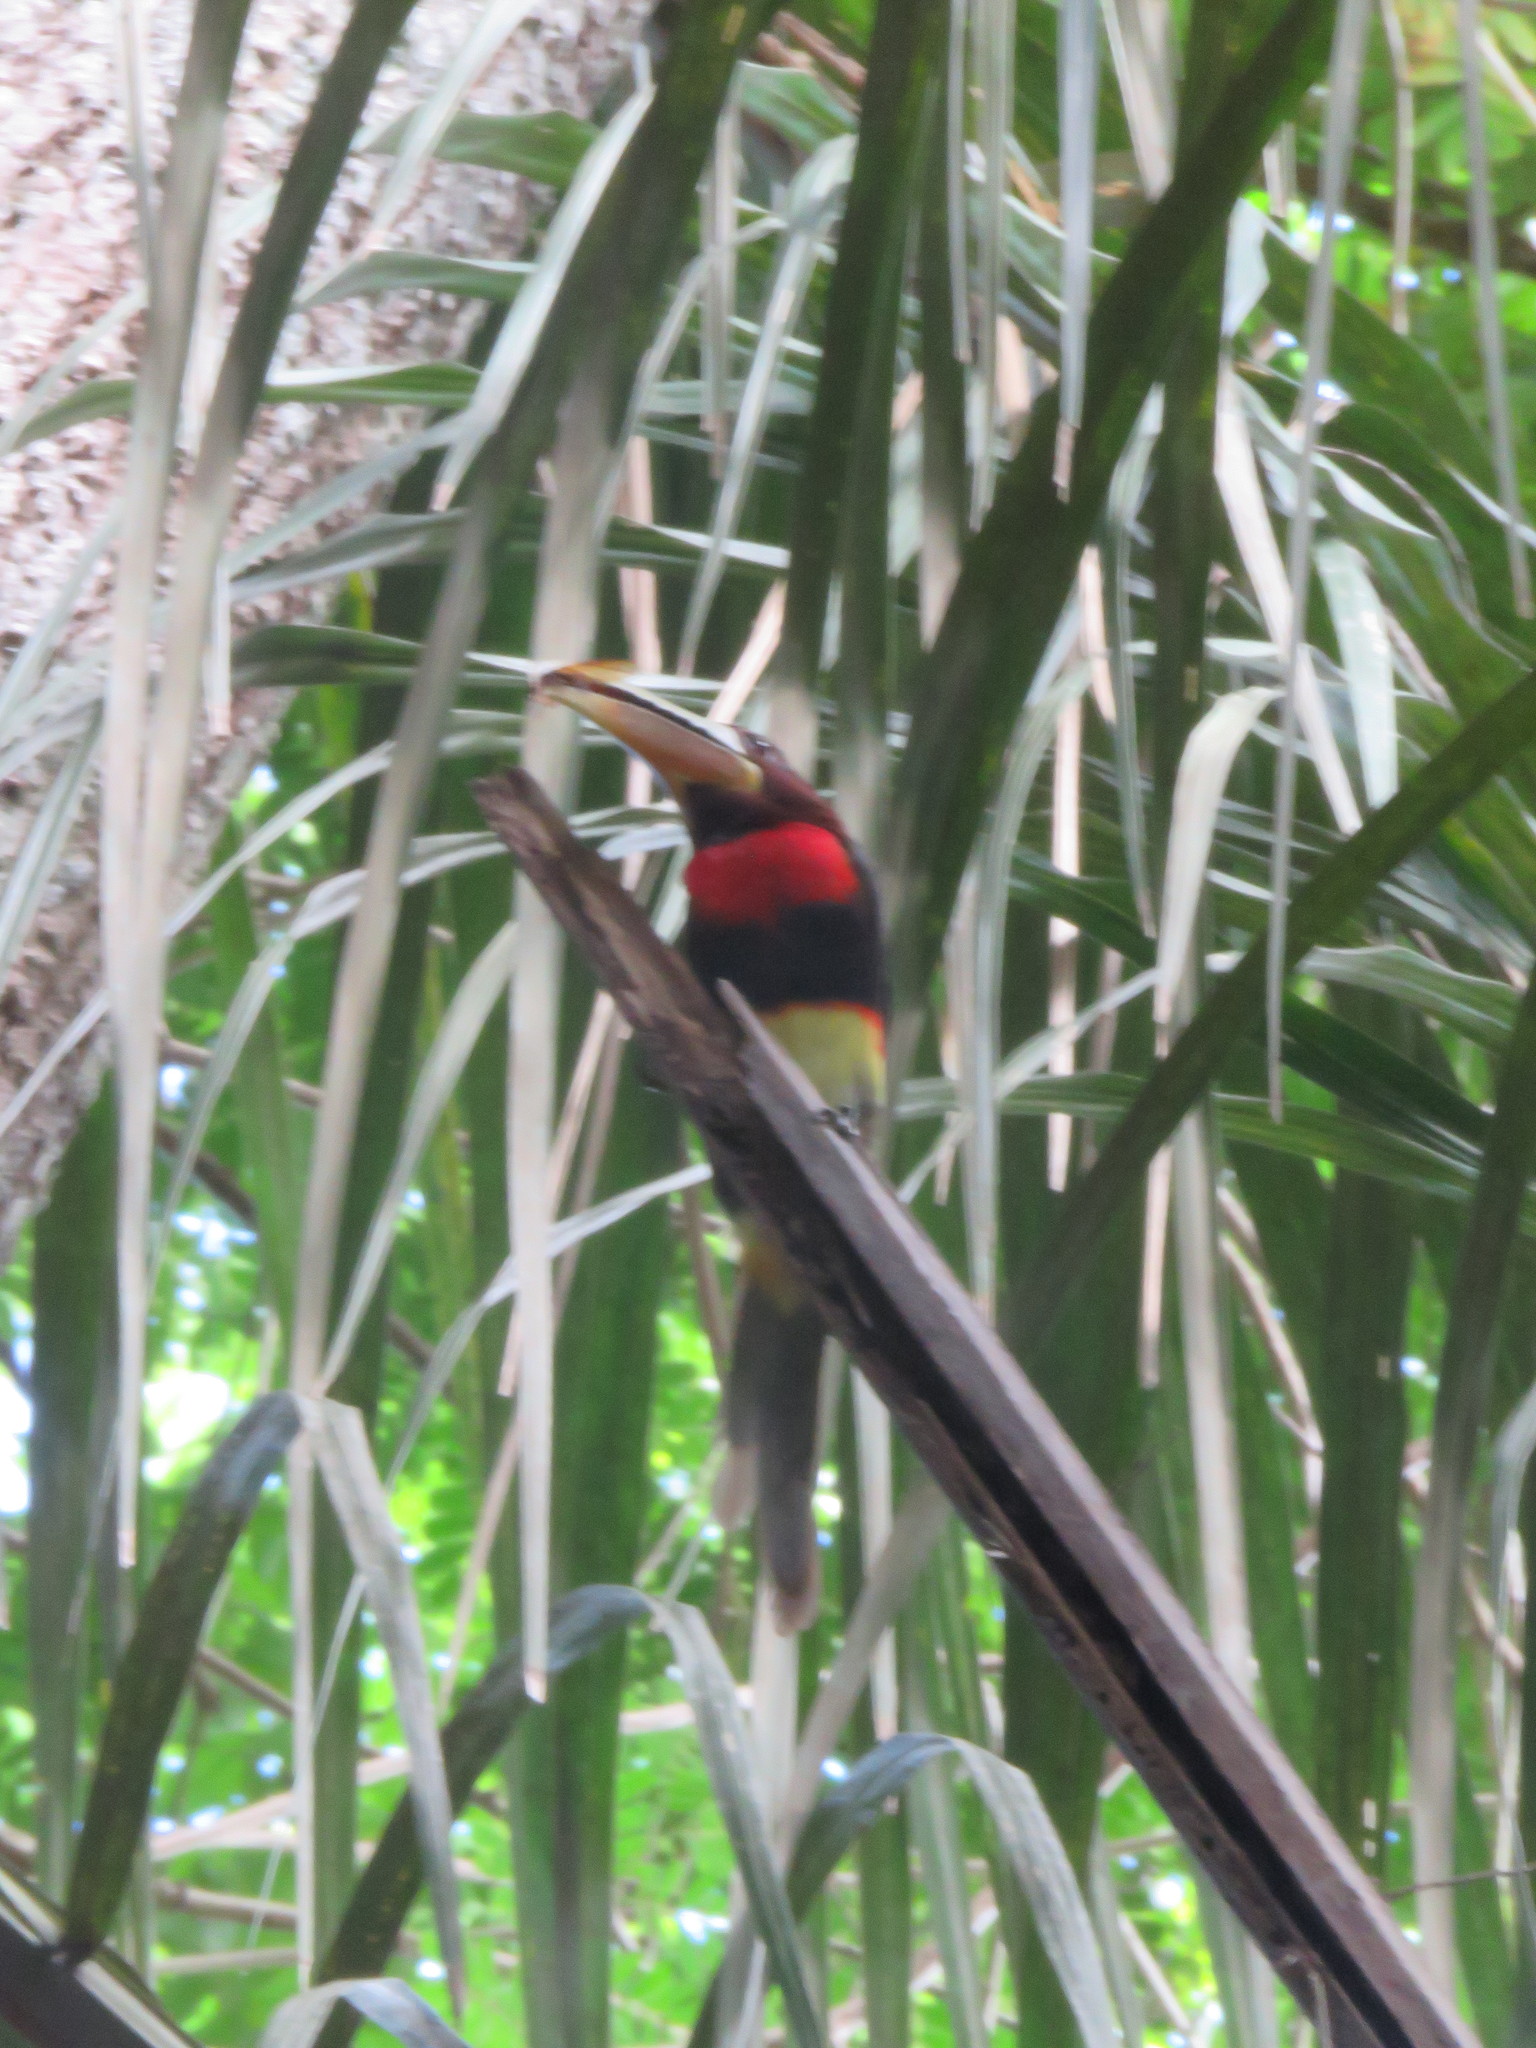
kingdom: Animalia
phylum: Chordata
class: Aves
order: Piciformes
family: Ramphastidae
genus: Pteroglossus
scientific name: Pteroglossus azara
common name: Ivory-billed aracari
